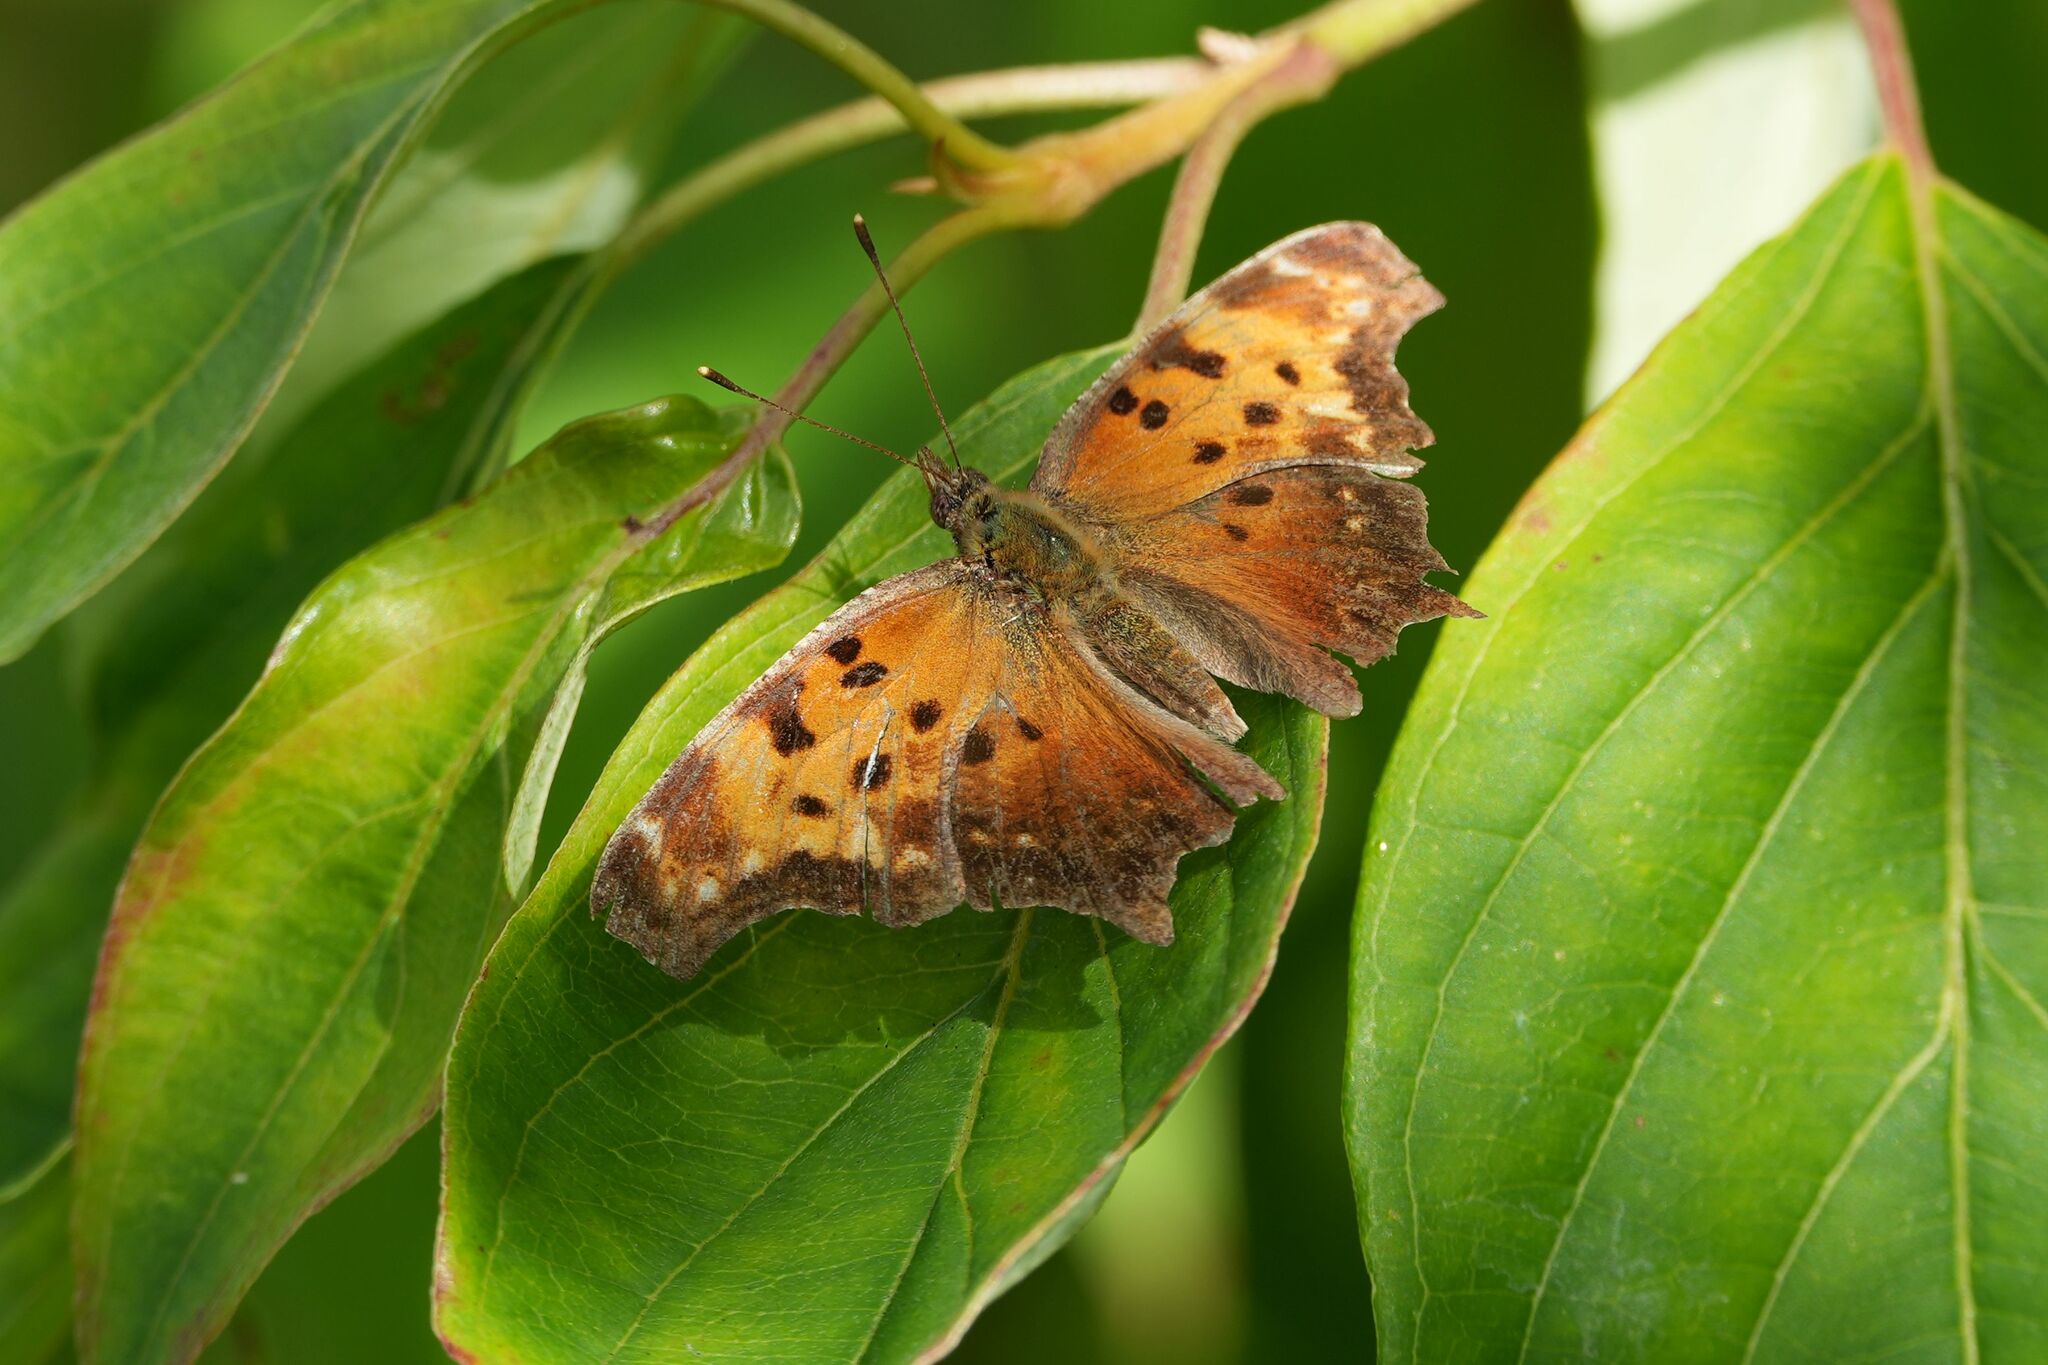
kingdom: Animalia
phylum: Arthropoda
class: Insecta
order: Lepidoptera
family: Nymphalidae
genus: Polygonia
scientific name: Polygonia progne
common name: Gray comma
